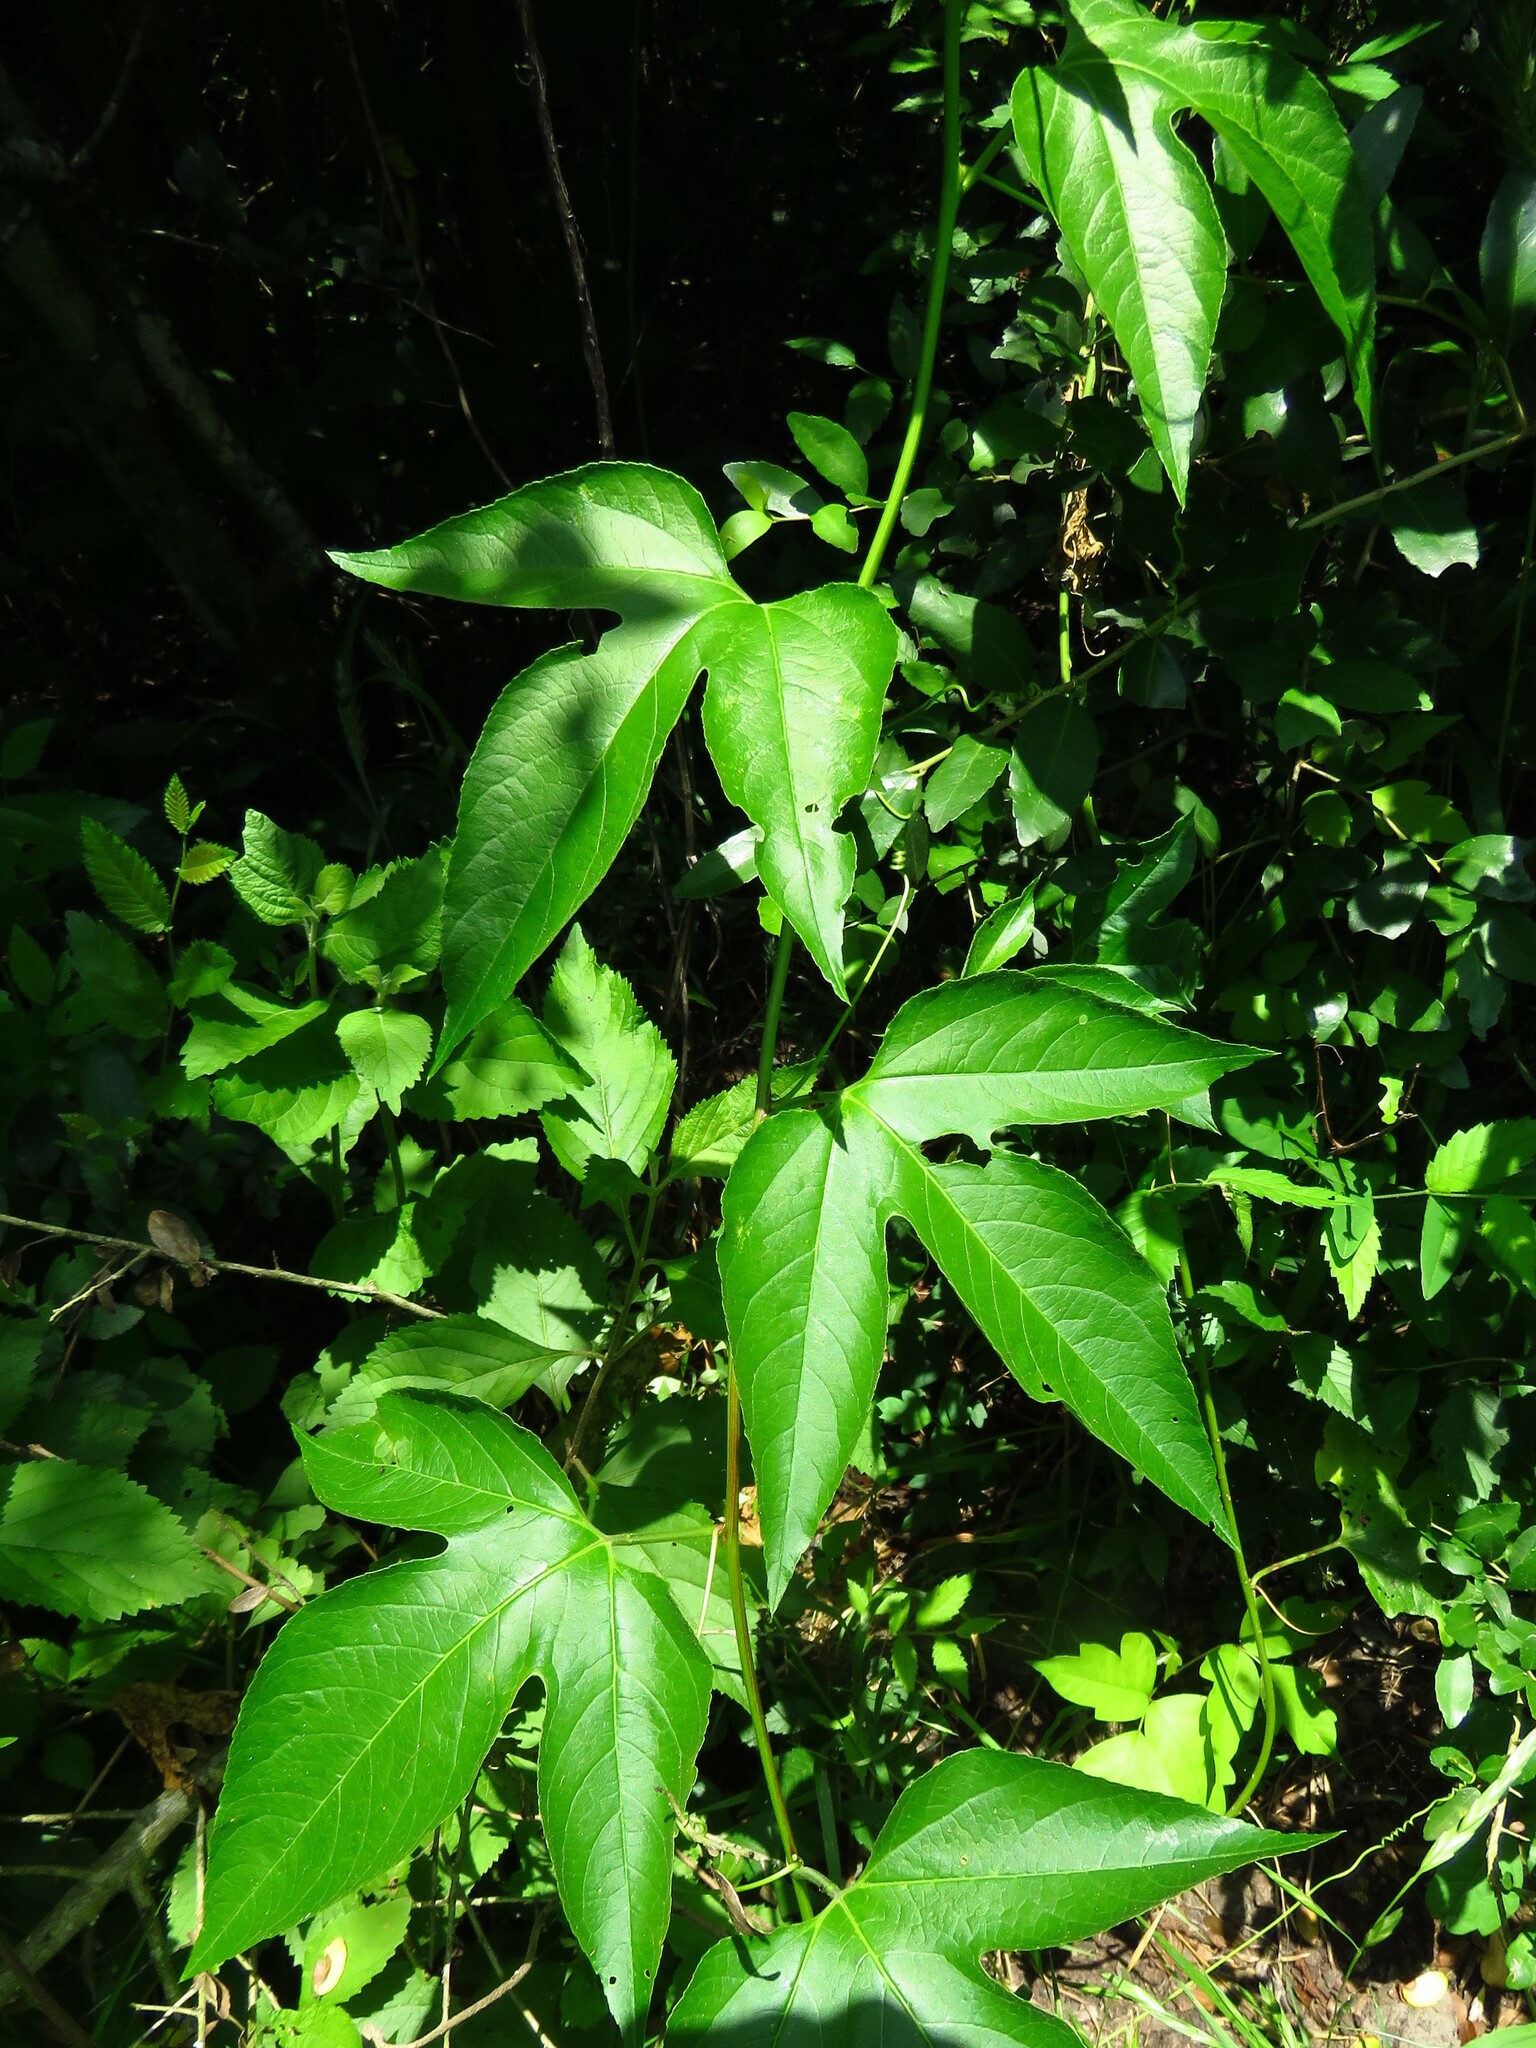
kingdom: Plantae
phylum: Tracheophyta
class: Magnoliopsida
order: Malpighiales
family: Passifloraceae
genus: Passiflora
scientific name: Passiflora incarnata
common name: Apricot-vine
